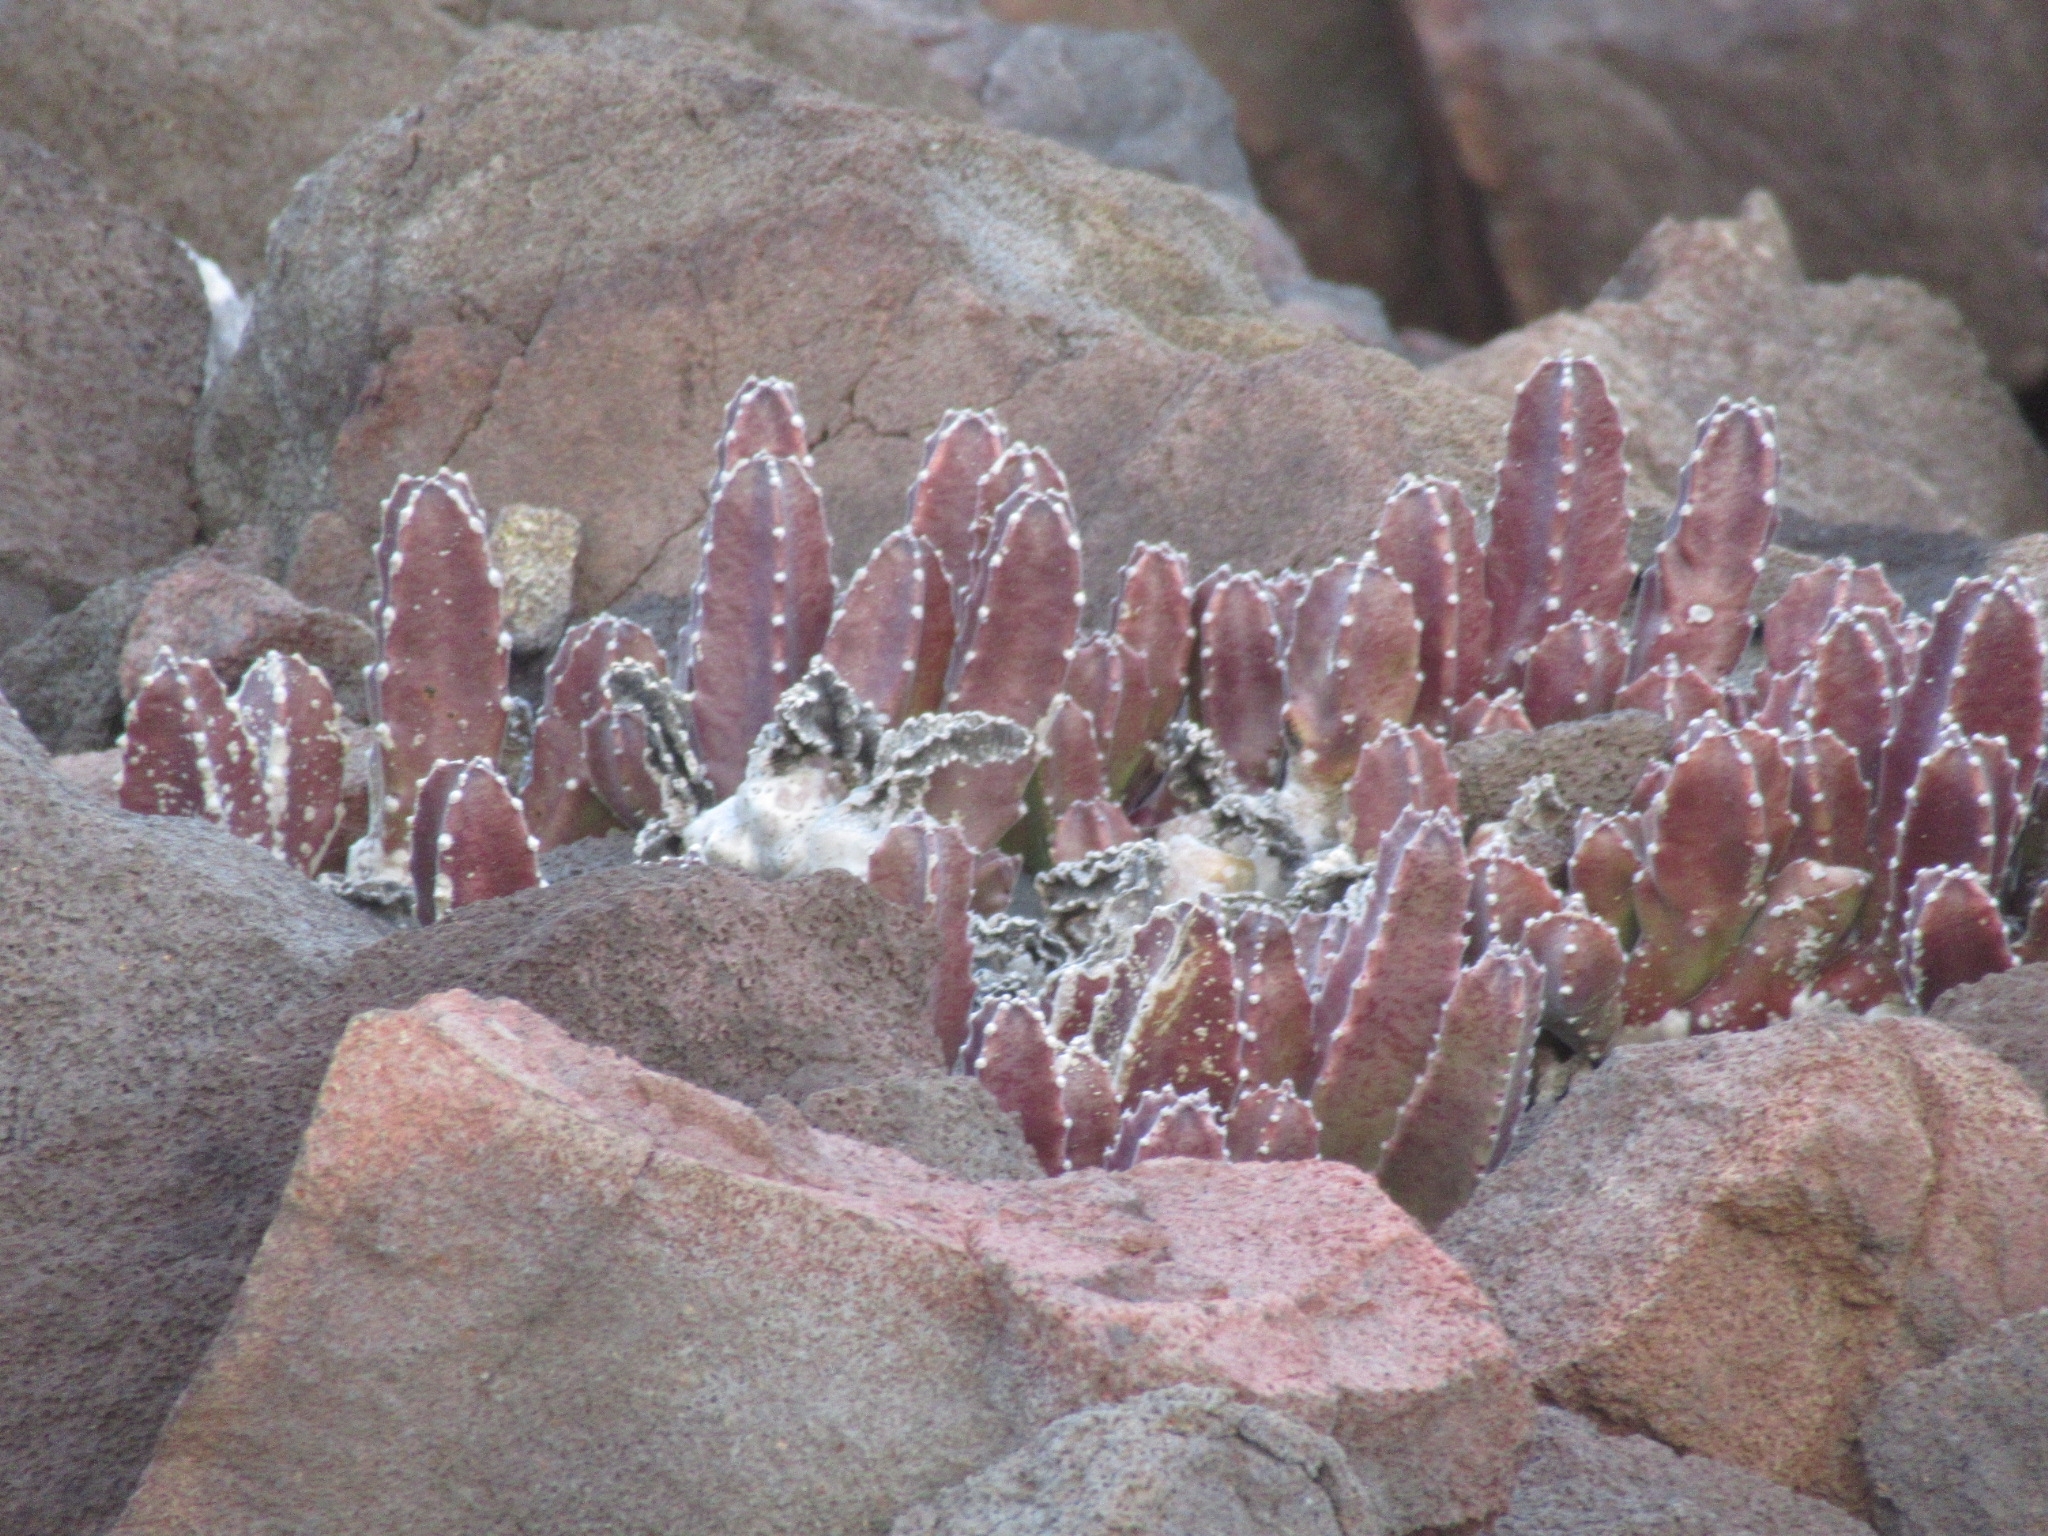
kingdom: Plantae
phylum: Tracheophyta
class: Magnoliopsida
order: Gentianales
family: Apocynaceae
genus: Ceropegia
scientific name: Ceropegia gigantea
